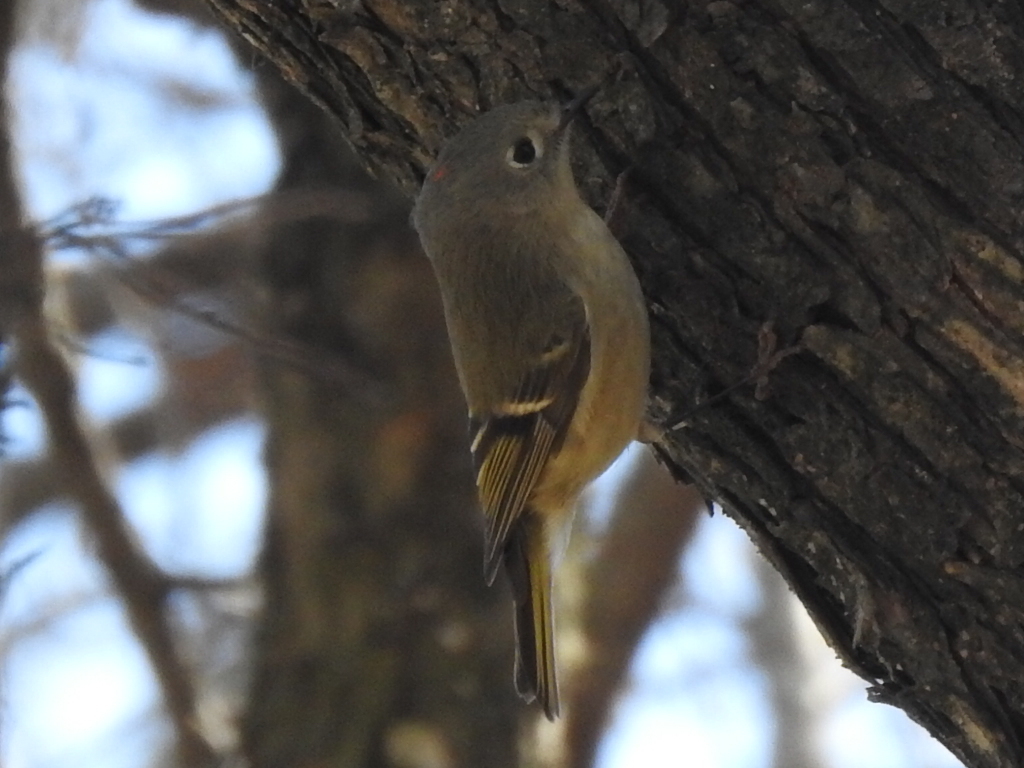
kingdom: Animalia
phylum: Chordata
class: Aves
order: Passeriformes
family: Regulidae
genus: Regulus
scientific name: Regulus calendula
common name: Ruby-crowned kinglet
